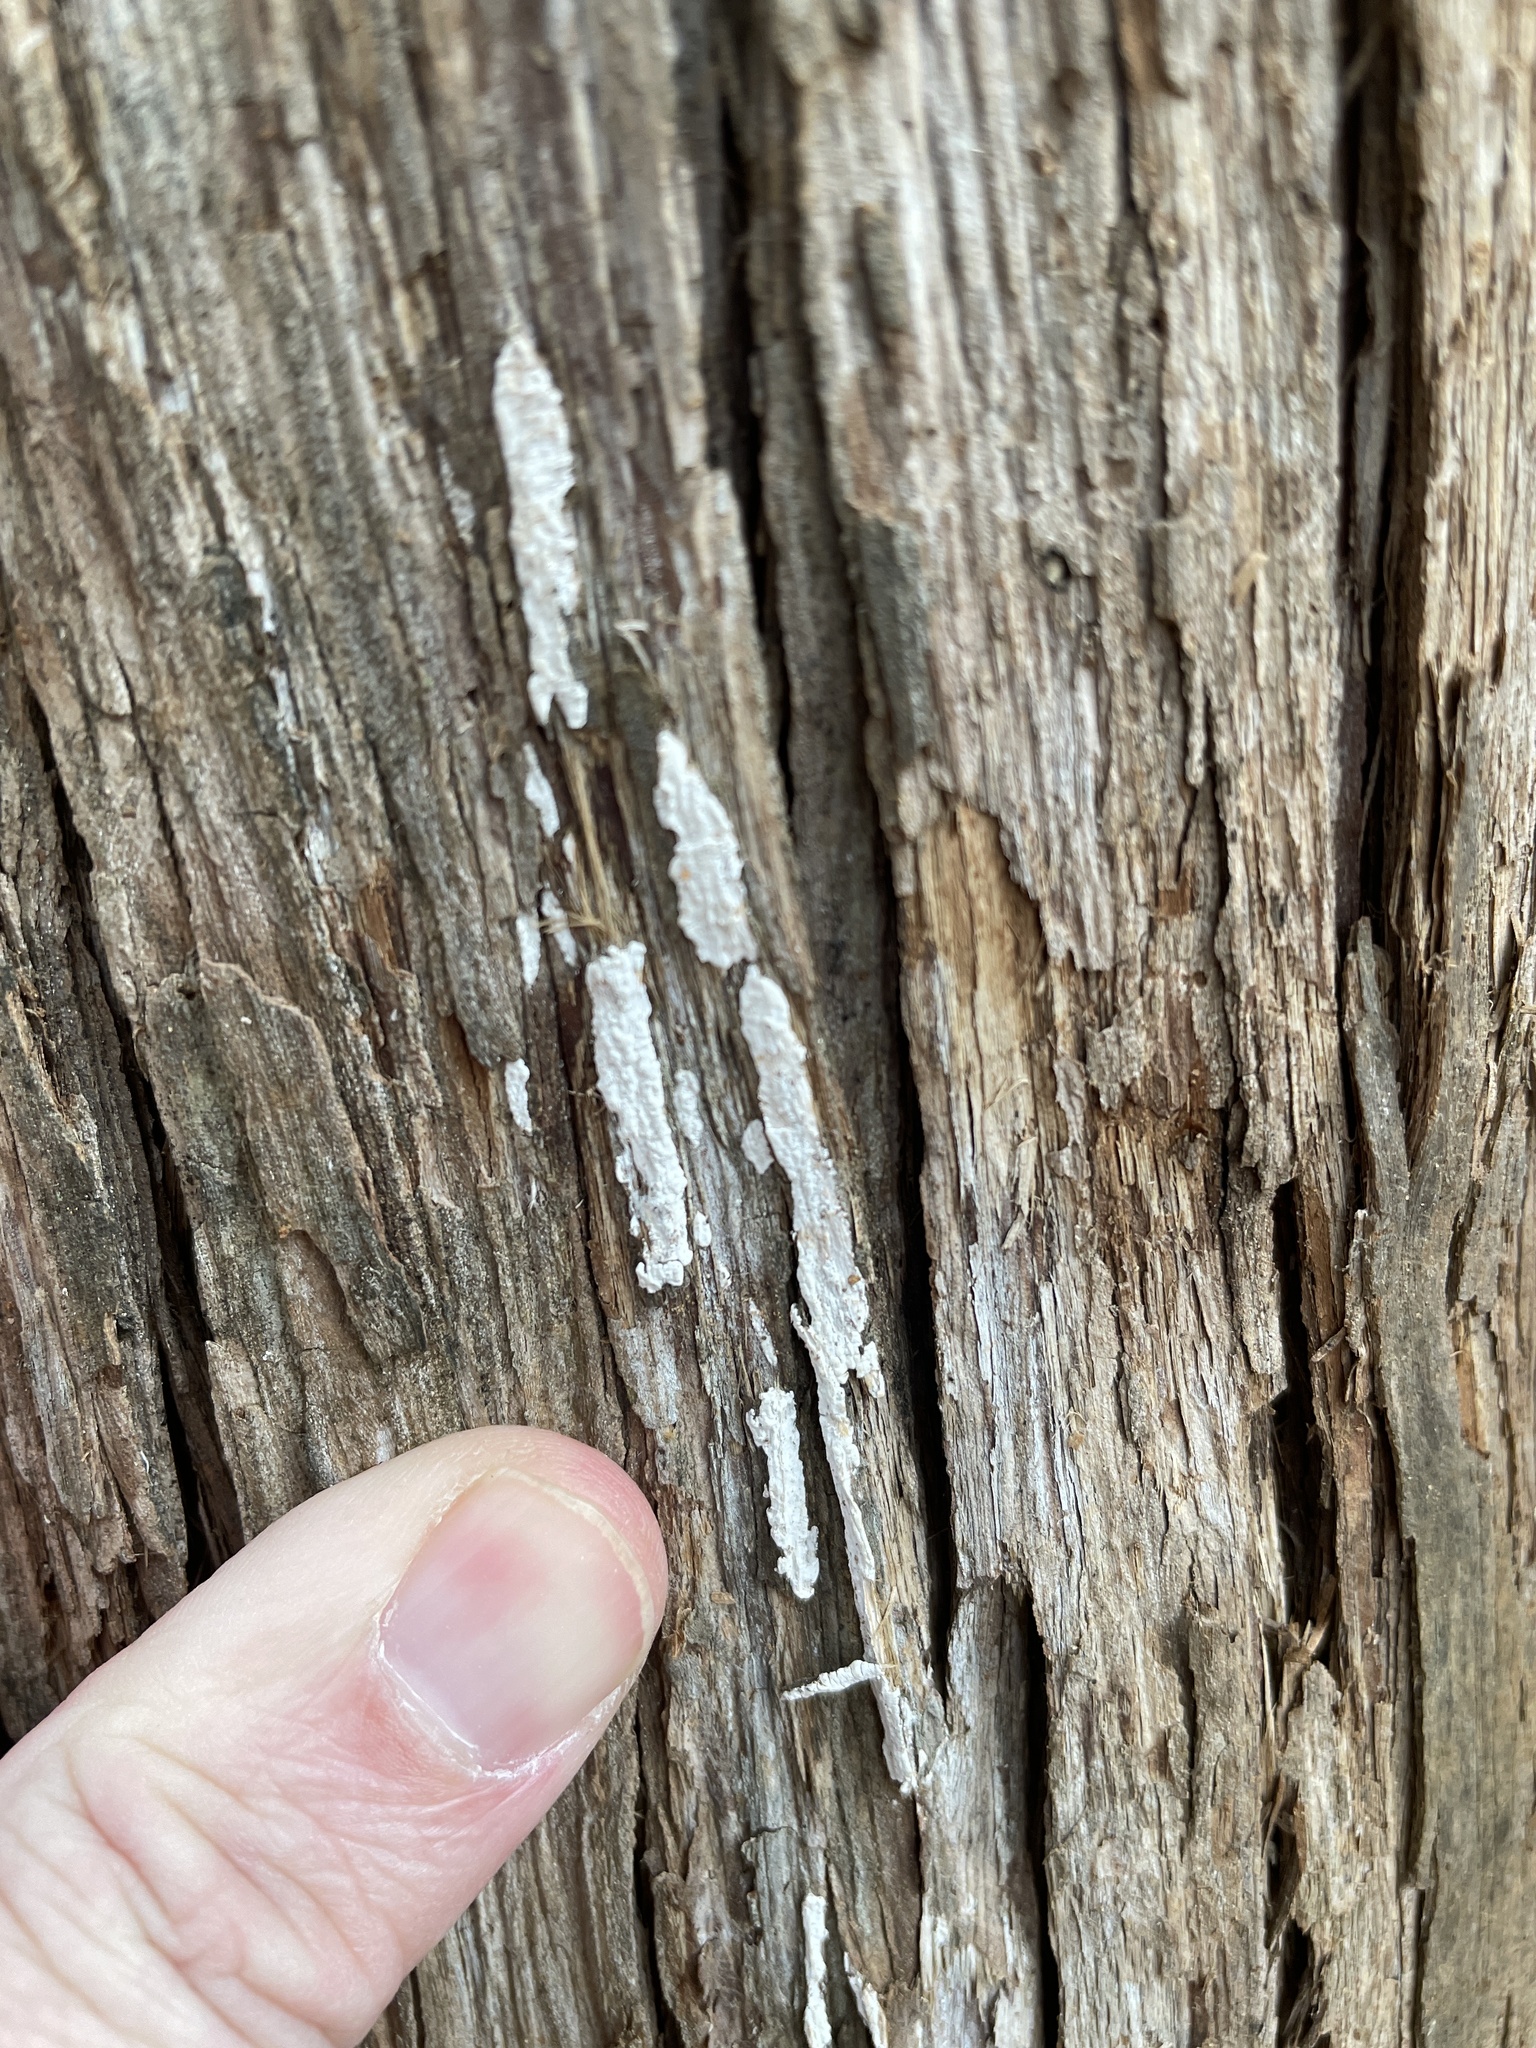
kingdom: Fungi
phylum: Basidiomycota
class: Agaricomycetes
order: Agaricales
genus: Dendrothele
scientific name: Dendrothele nivosa
